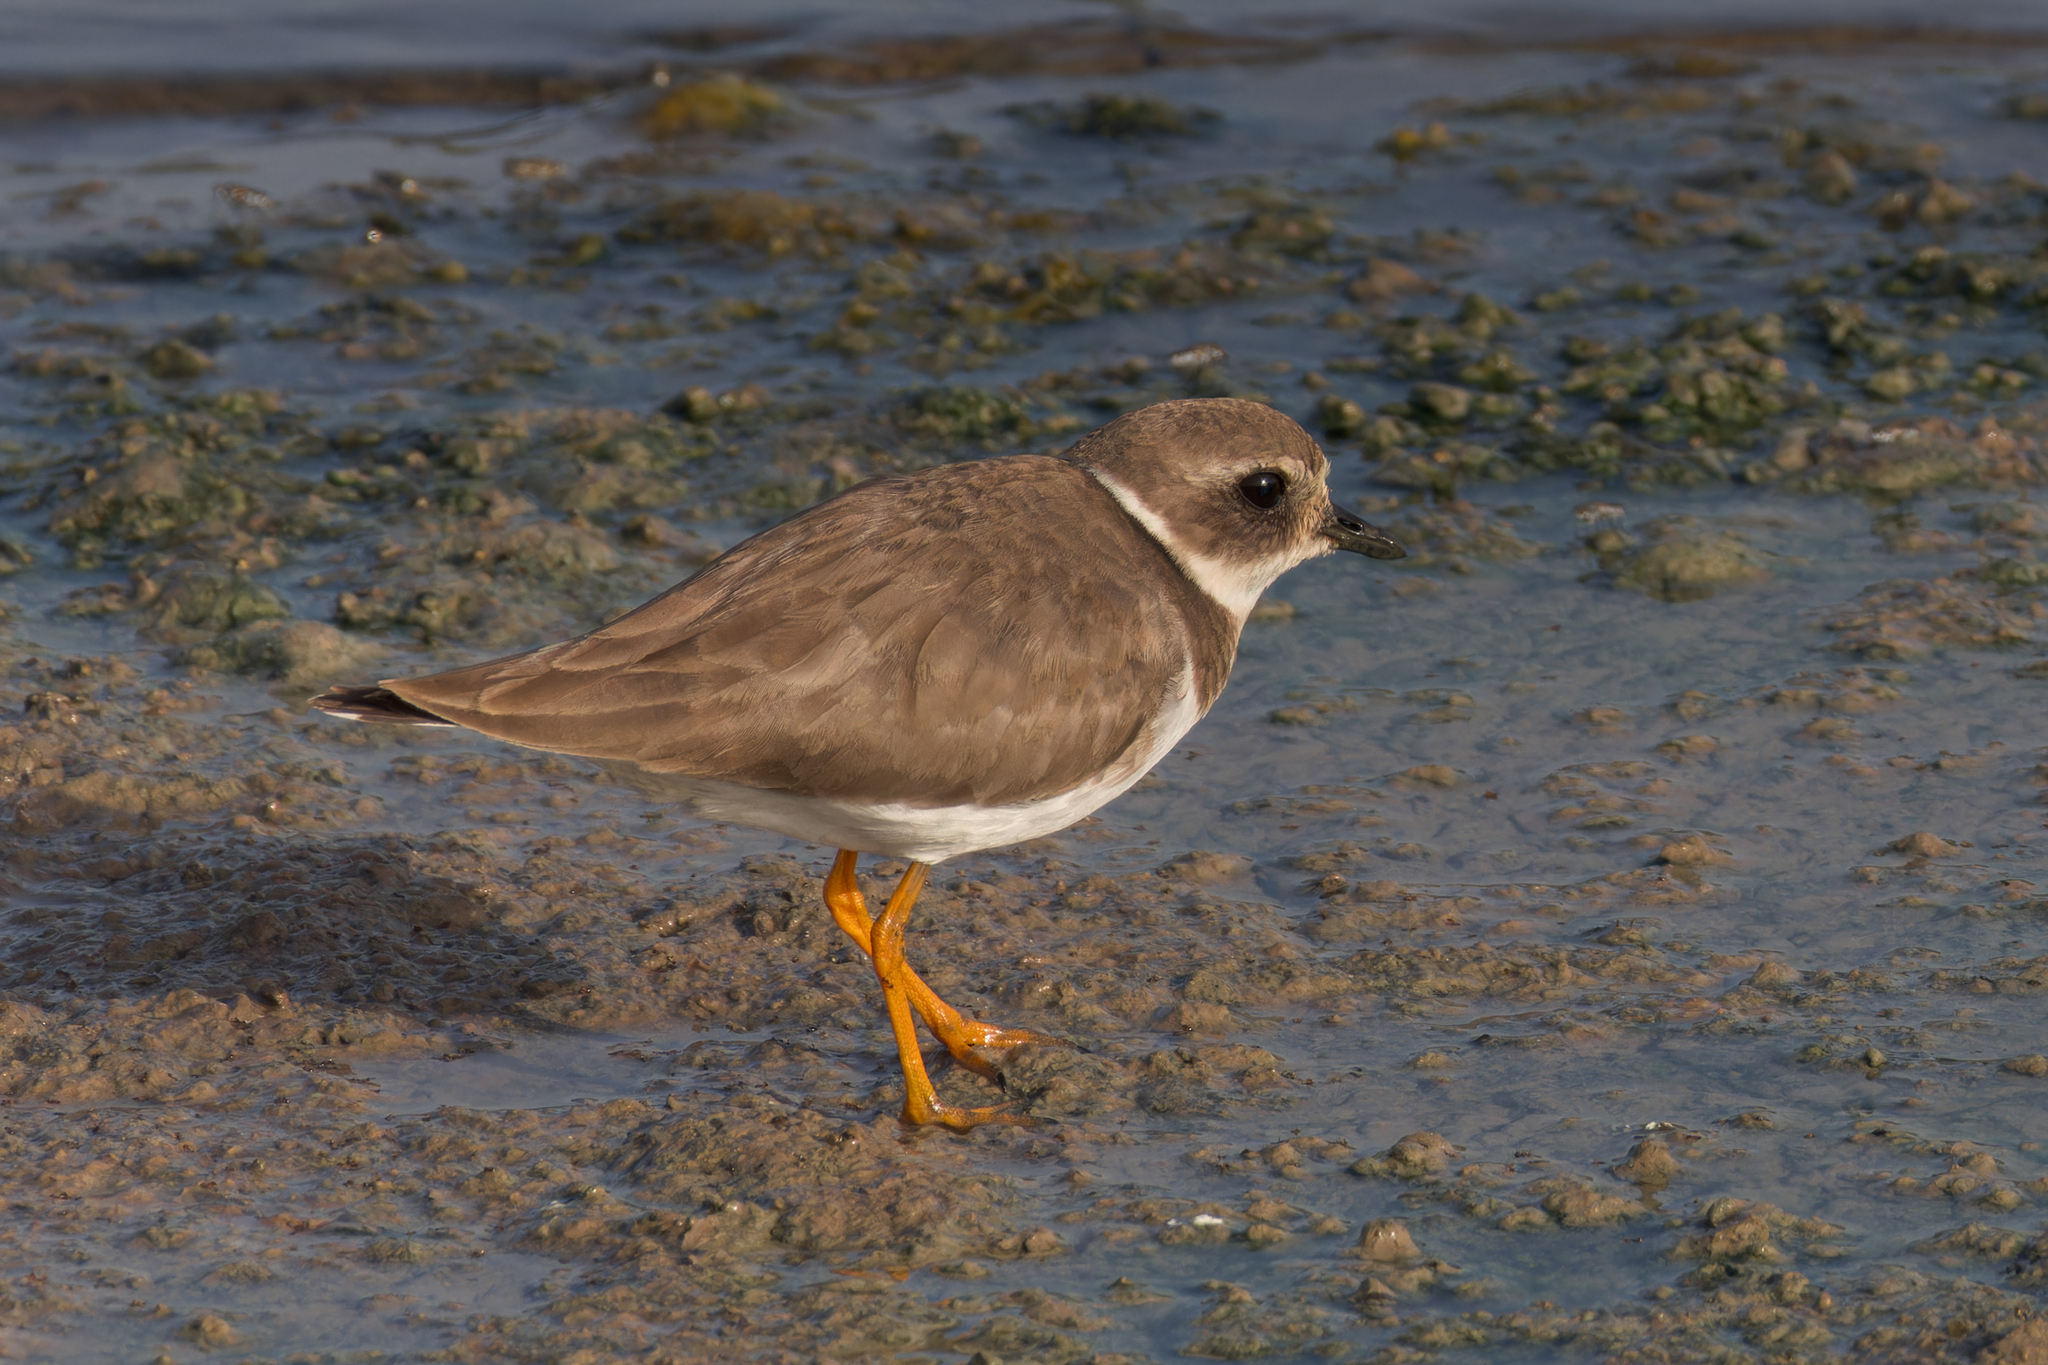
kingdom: Animalia
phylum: Chordata
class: Aves
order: Charadriiformes
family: Charadriidae
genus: Charadrius
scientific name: Charadrius hiaticula
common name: Common ringed plover
